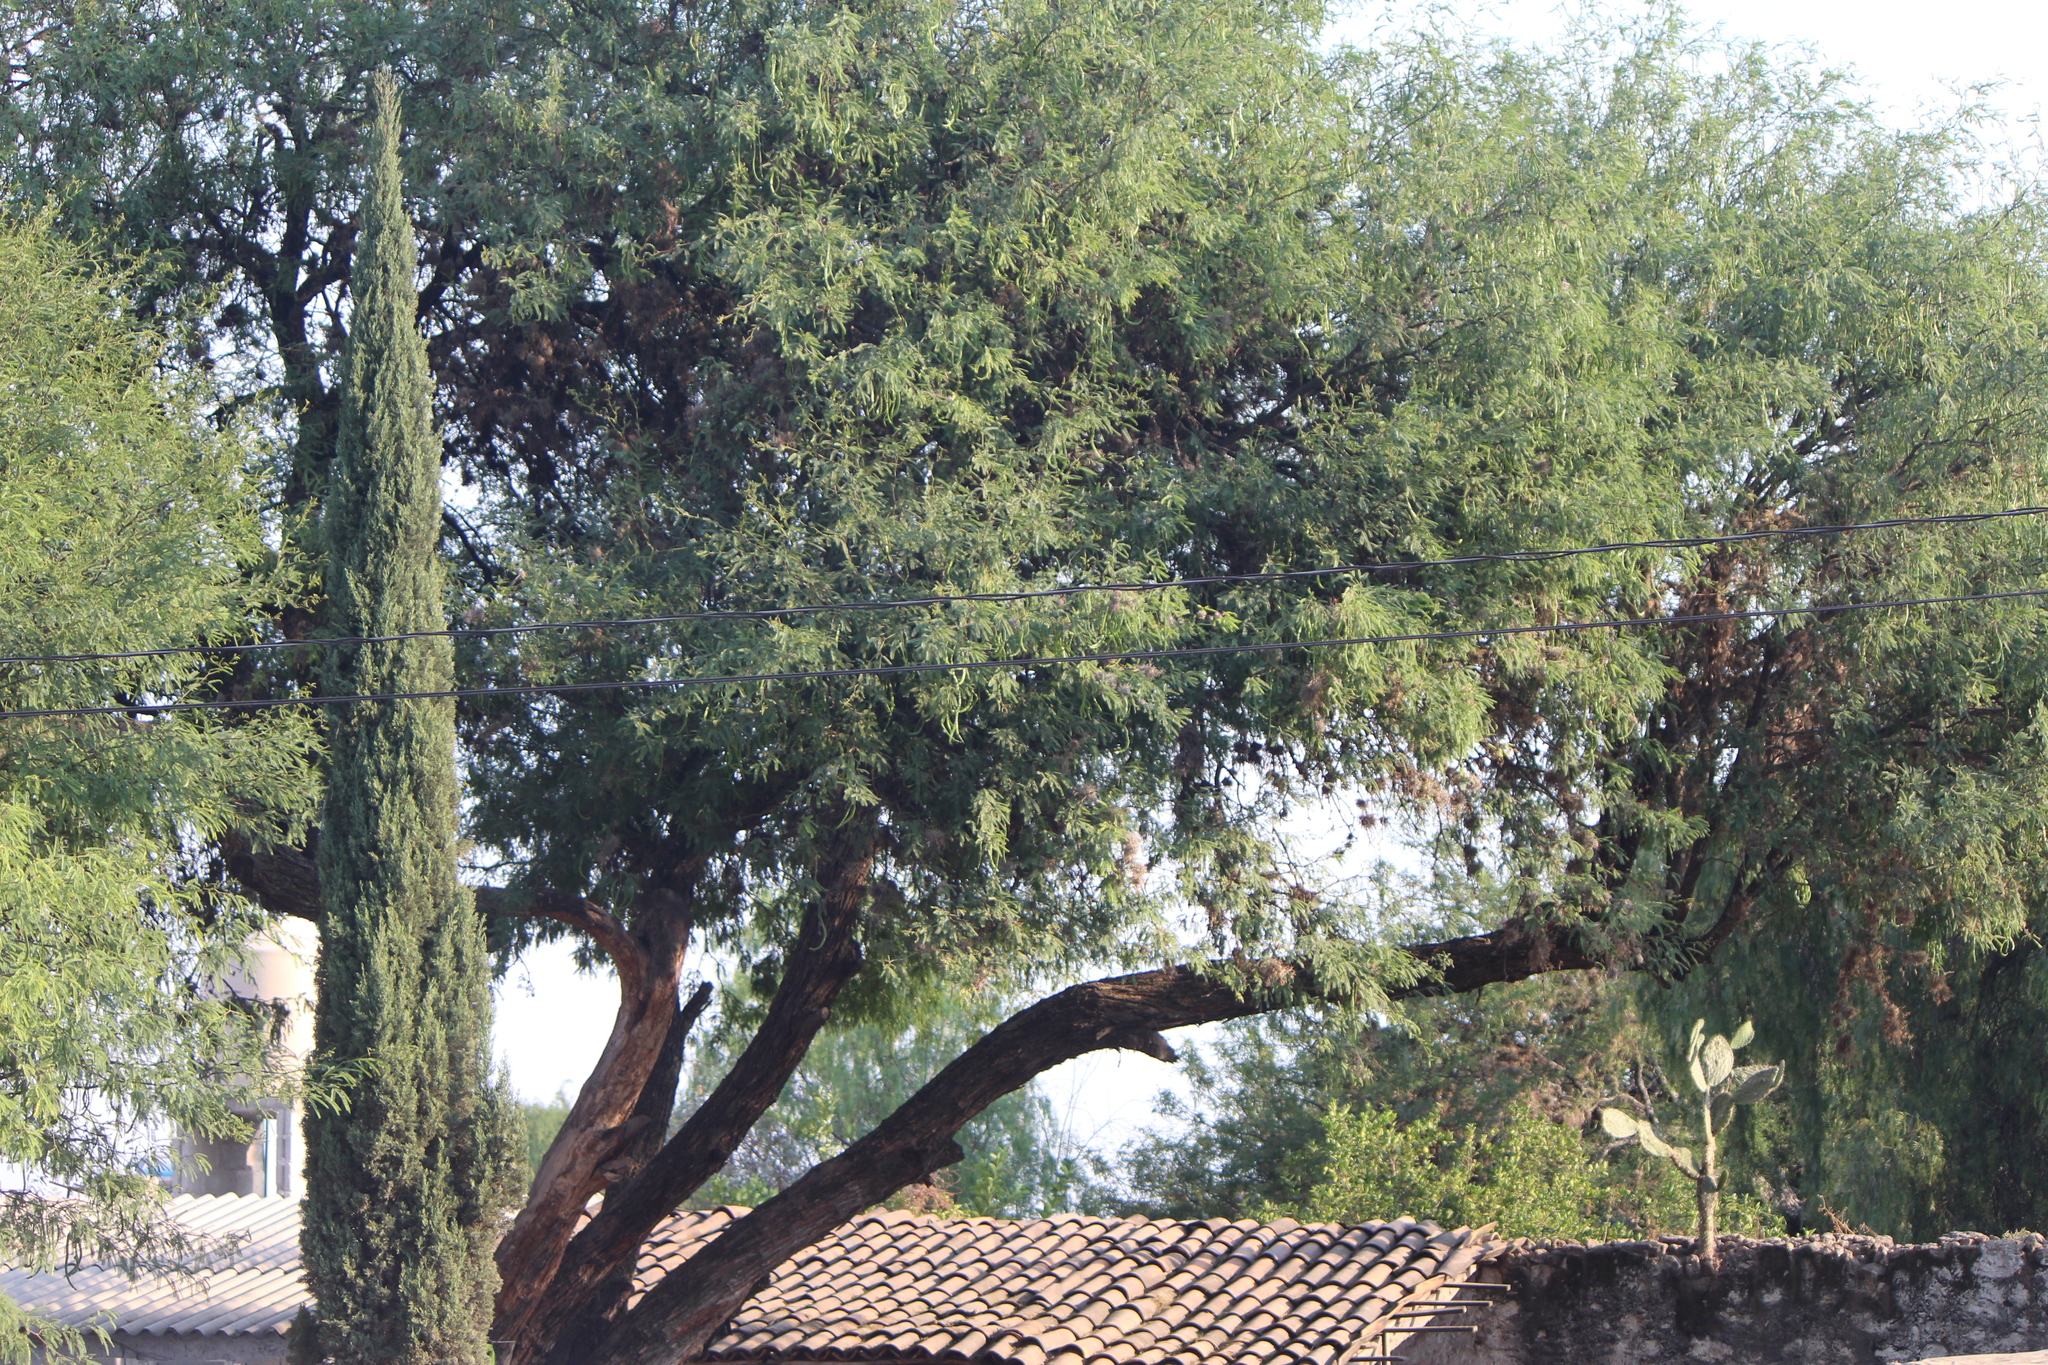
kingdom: Plantae
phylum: Tracheophyta
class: Magnoliopsida
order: Fabales
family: Fabaceae
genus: Prosopis
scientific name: Prosopis laevigata
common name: Smooth mesquite
